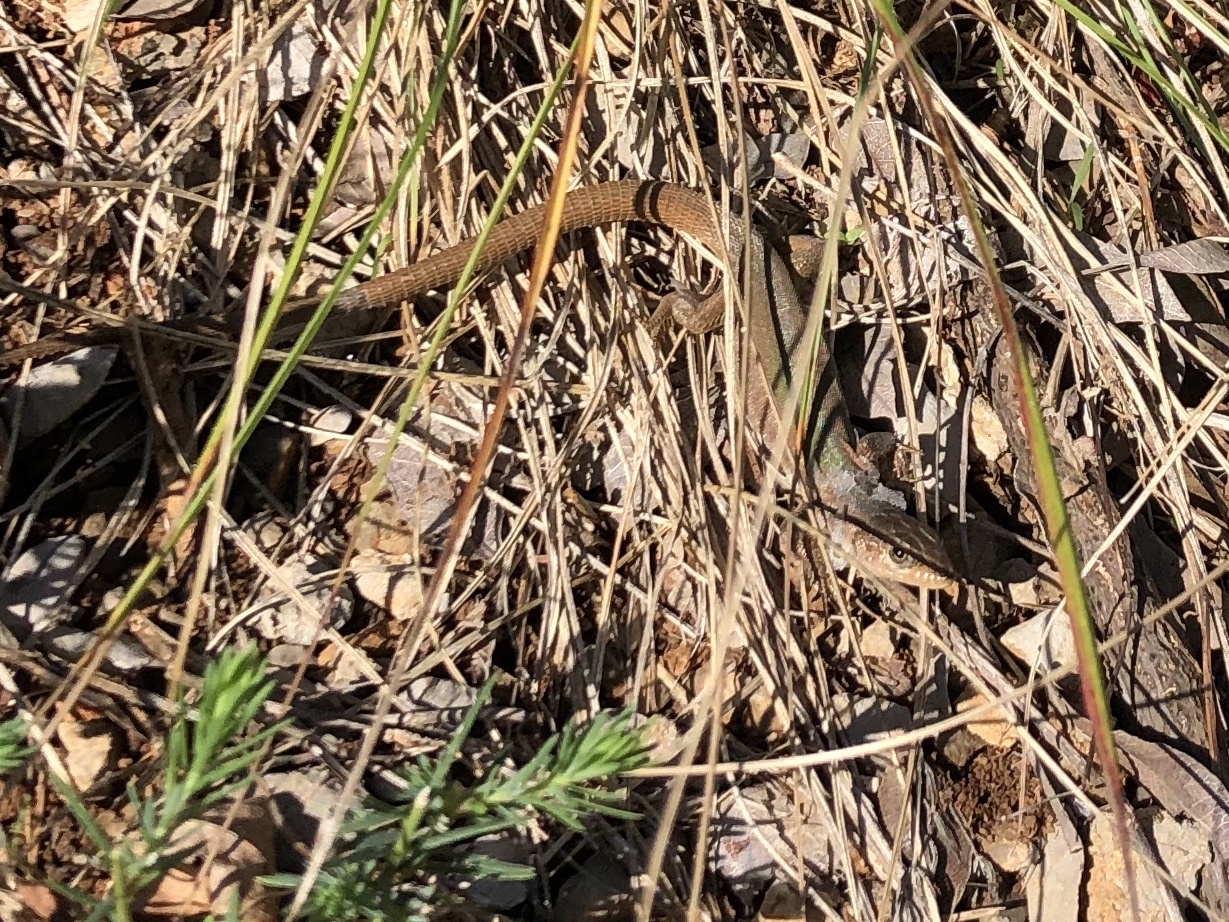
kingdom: Animalia
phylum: Chordata
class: Squamata
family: Lacertidae
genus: Podarcis
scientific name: Podarcis melisellensis
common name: Dalmatian wall lizard
